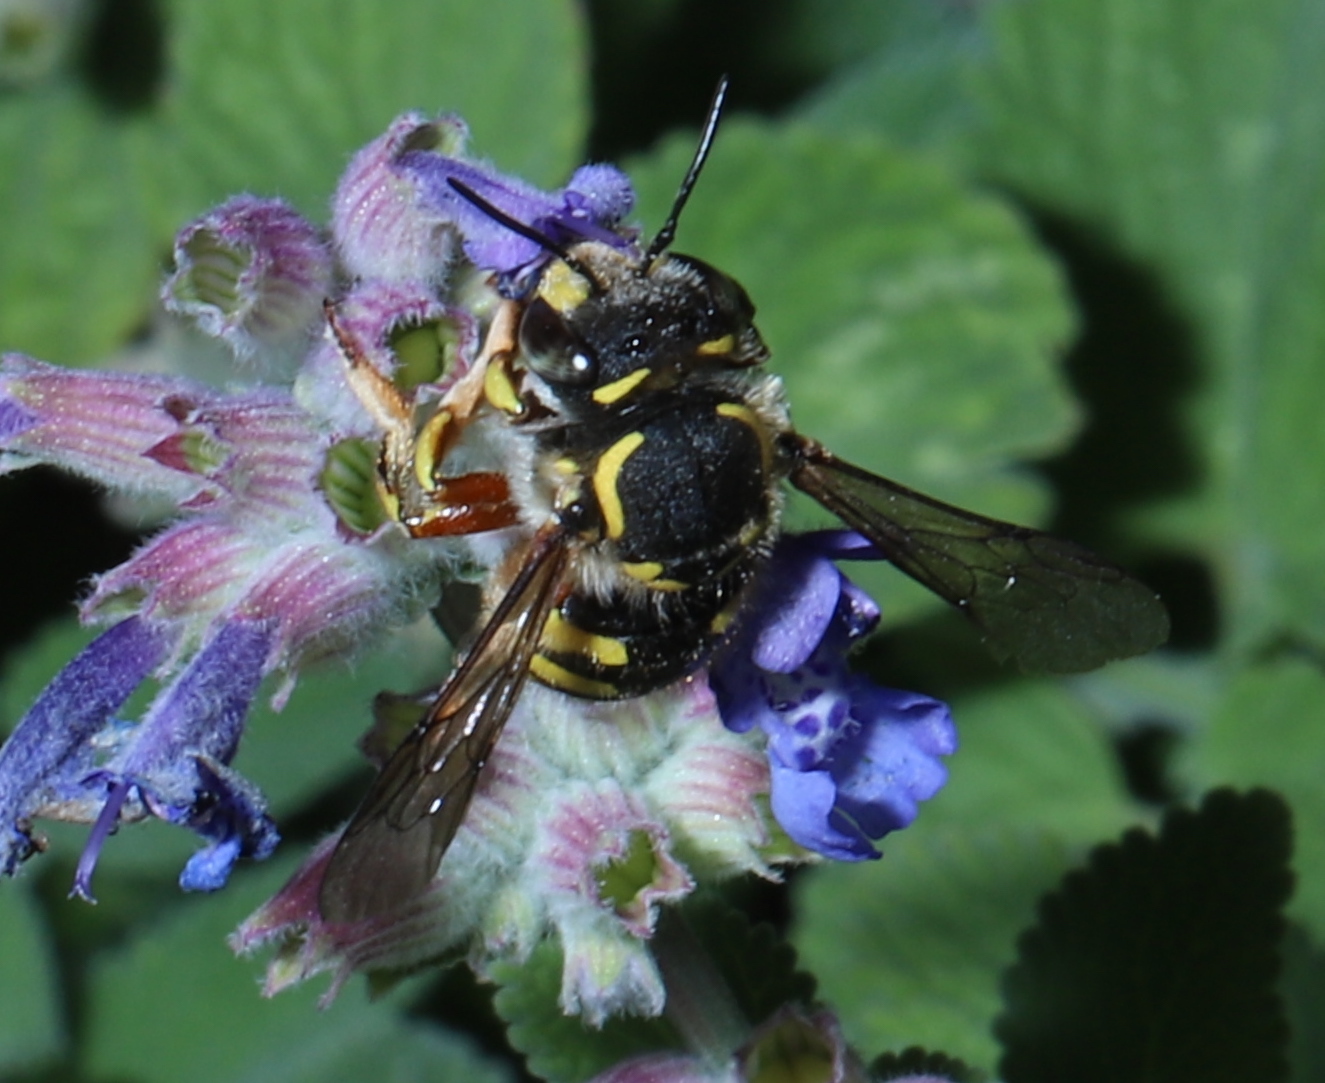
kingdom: Animalia
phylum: Arthropoda
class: Insecta
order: Hymenoptera
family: Megachilidae
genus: Anthidium
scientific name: Anthidium manicatum
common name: Wool carder bee
